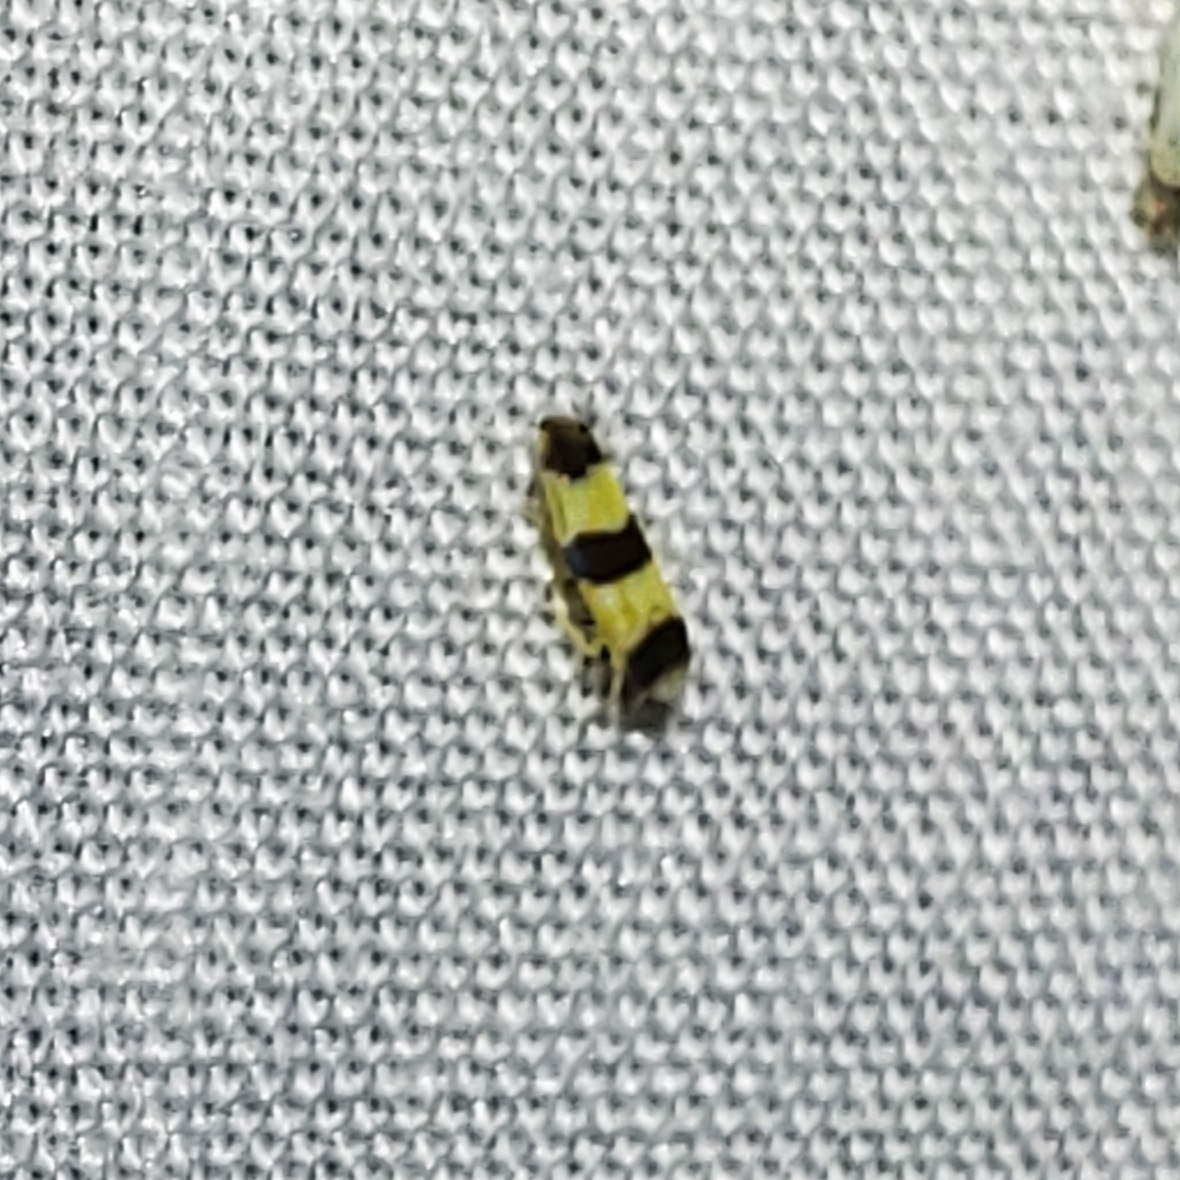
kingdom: Animalia
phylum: Arthropoda
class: Insecta
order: Hemiptera
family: Cicadellidae
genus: Erythroneura
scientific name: Erythroneura tricincta
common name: The threebanded grape leafhopper
